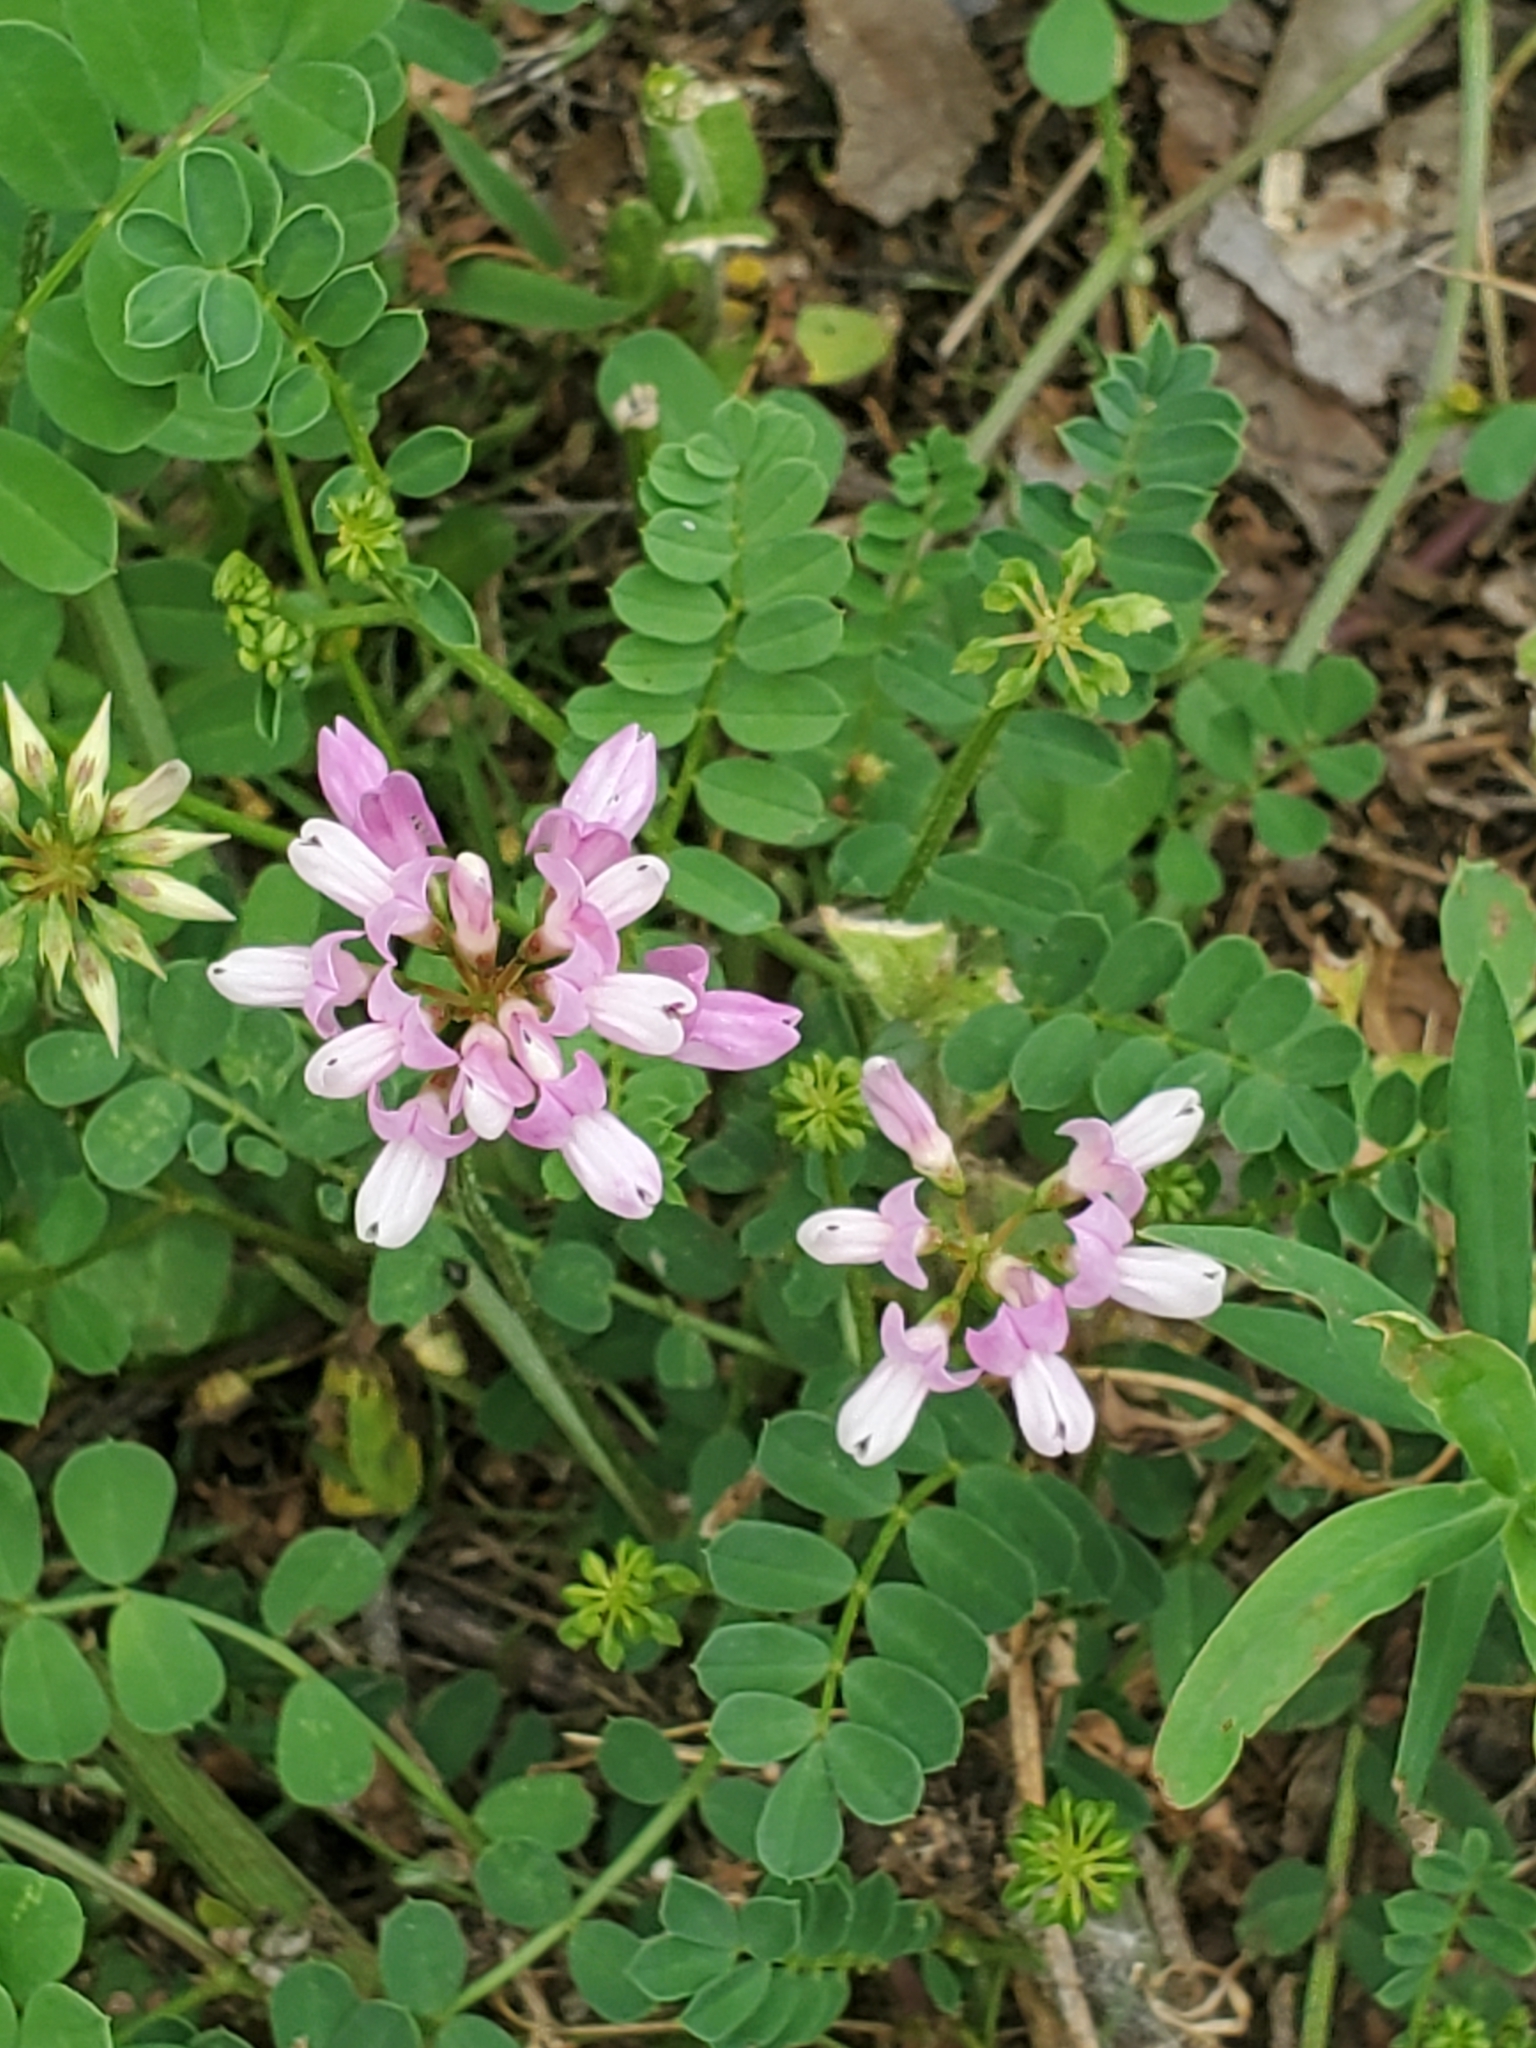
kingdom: Plantae
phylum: Tracheophyta
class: Magnoliopsida
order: Fabales
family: Fabaceae
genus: Coronilla
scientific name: Coronilla varia
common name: Crownvetch
